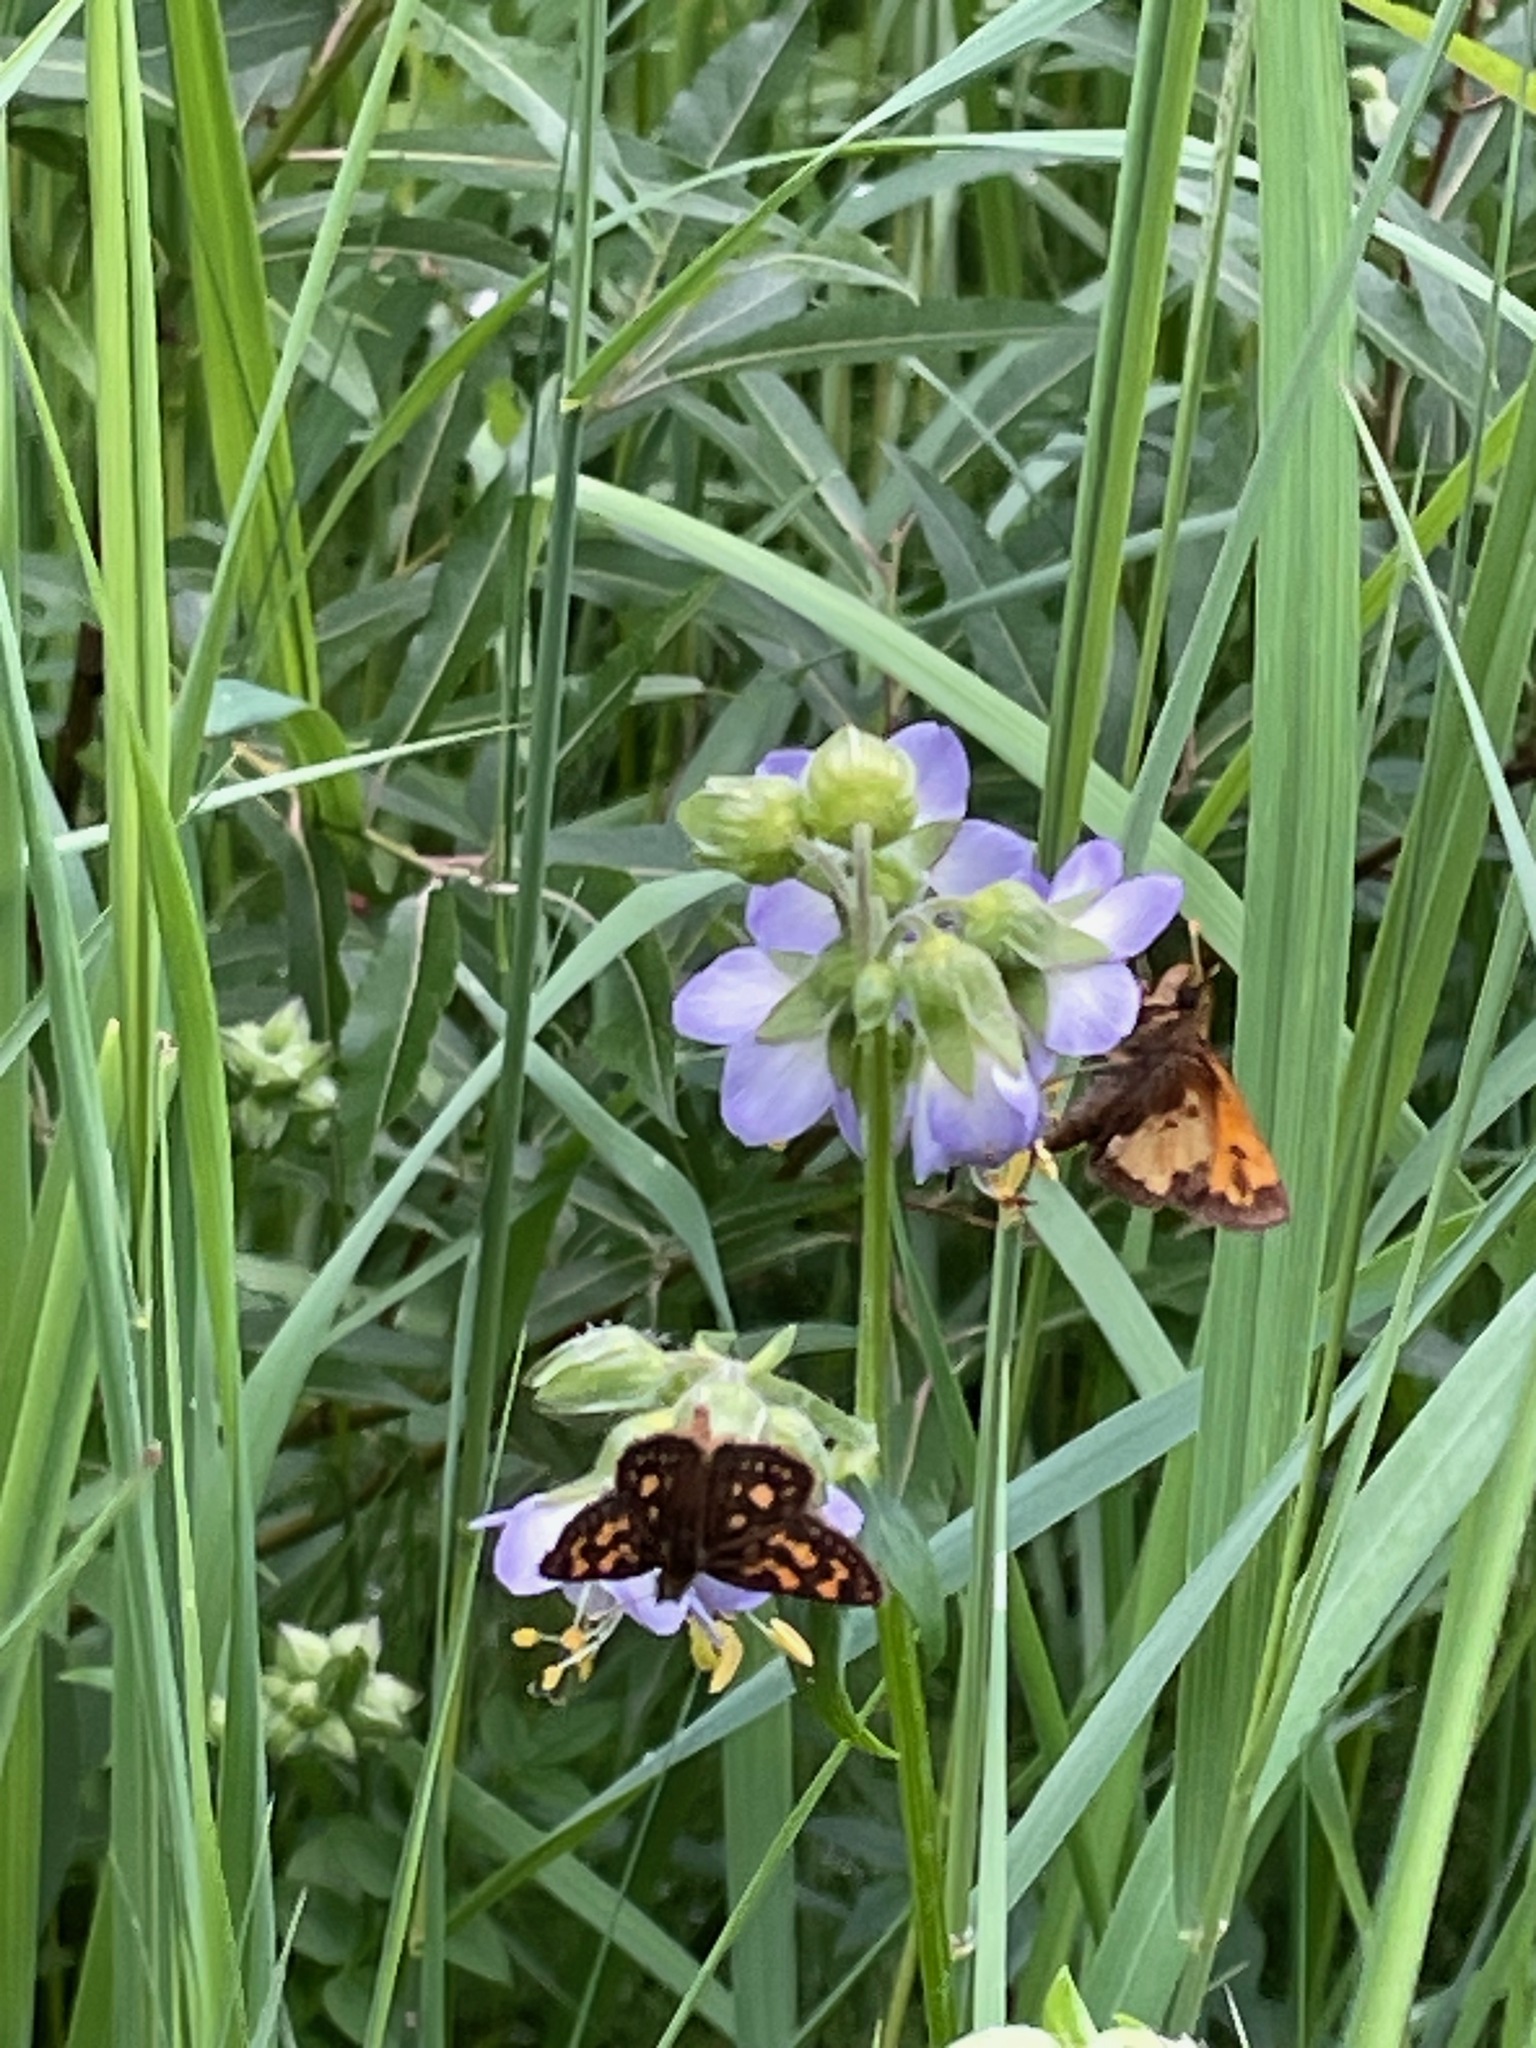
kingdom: Animalia
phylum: Arthropoda
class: Insecta
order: Lepidoptera
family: Hesperiidae
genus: Lon
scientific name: Lon hobomok
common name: Hobomok skipper
